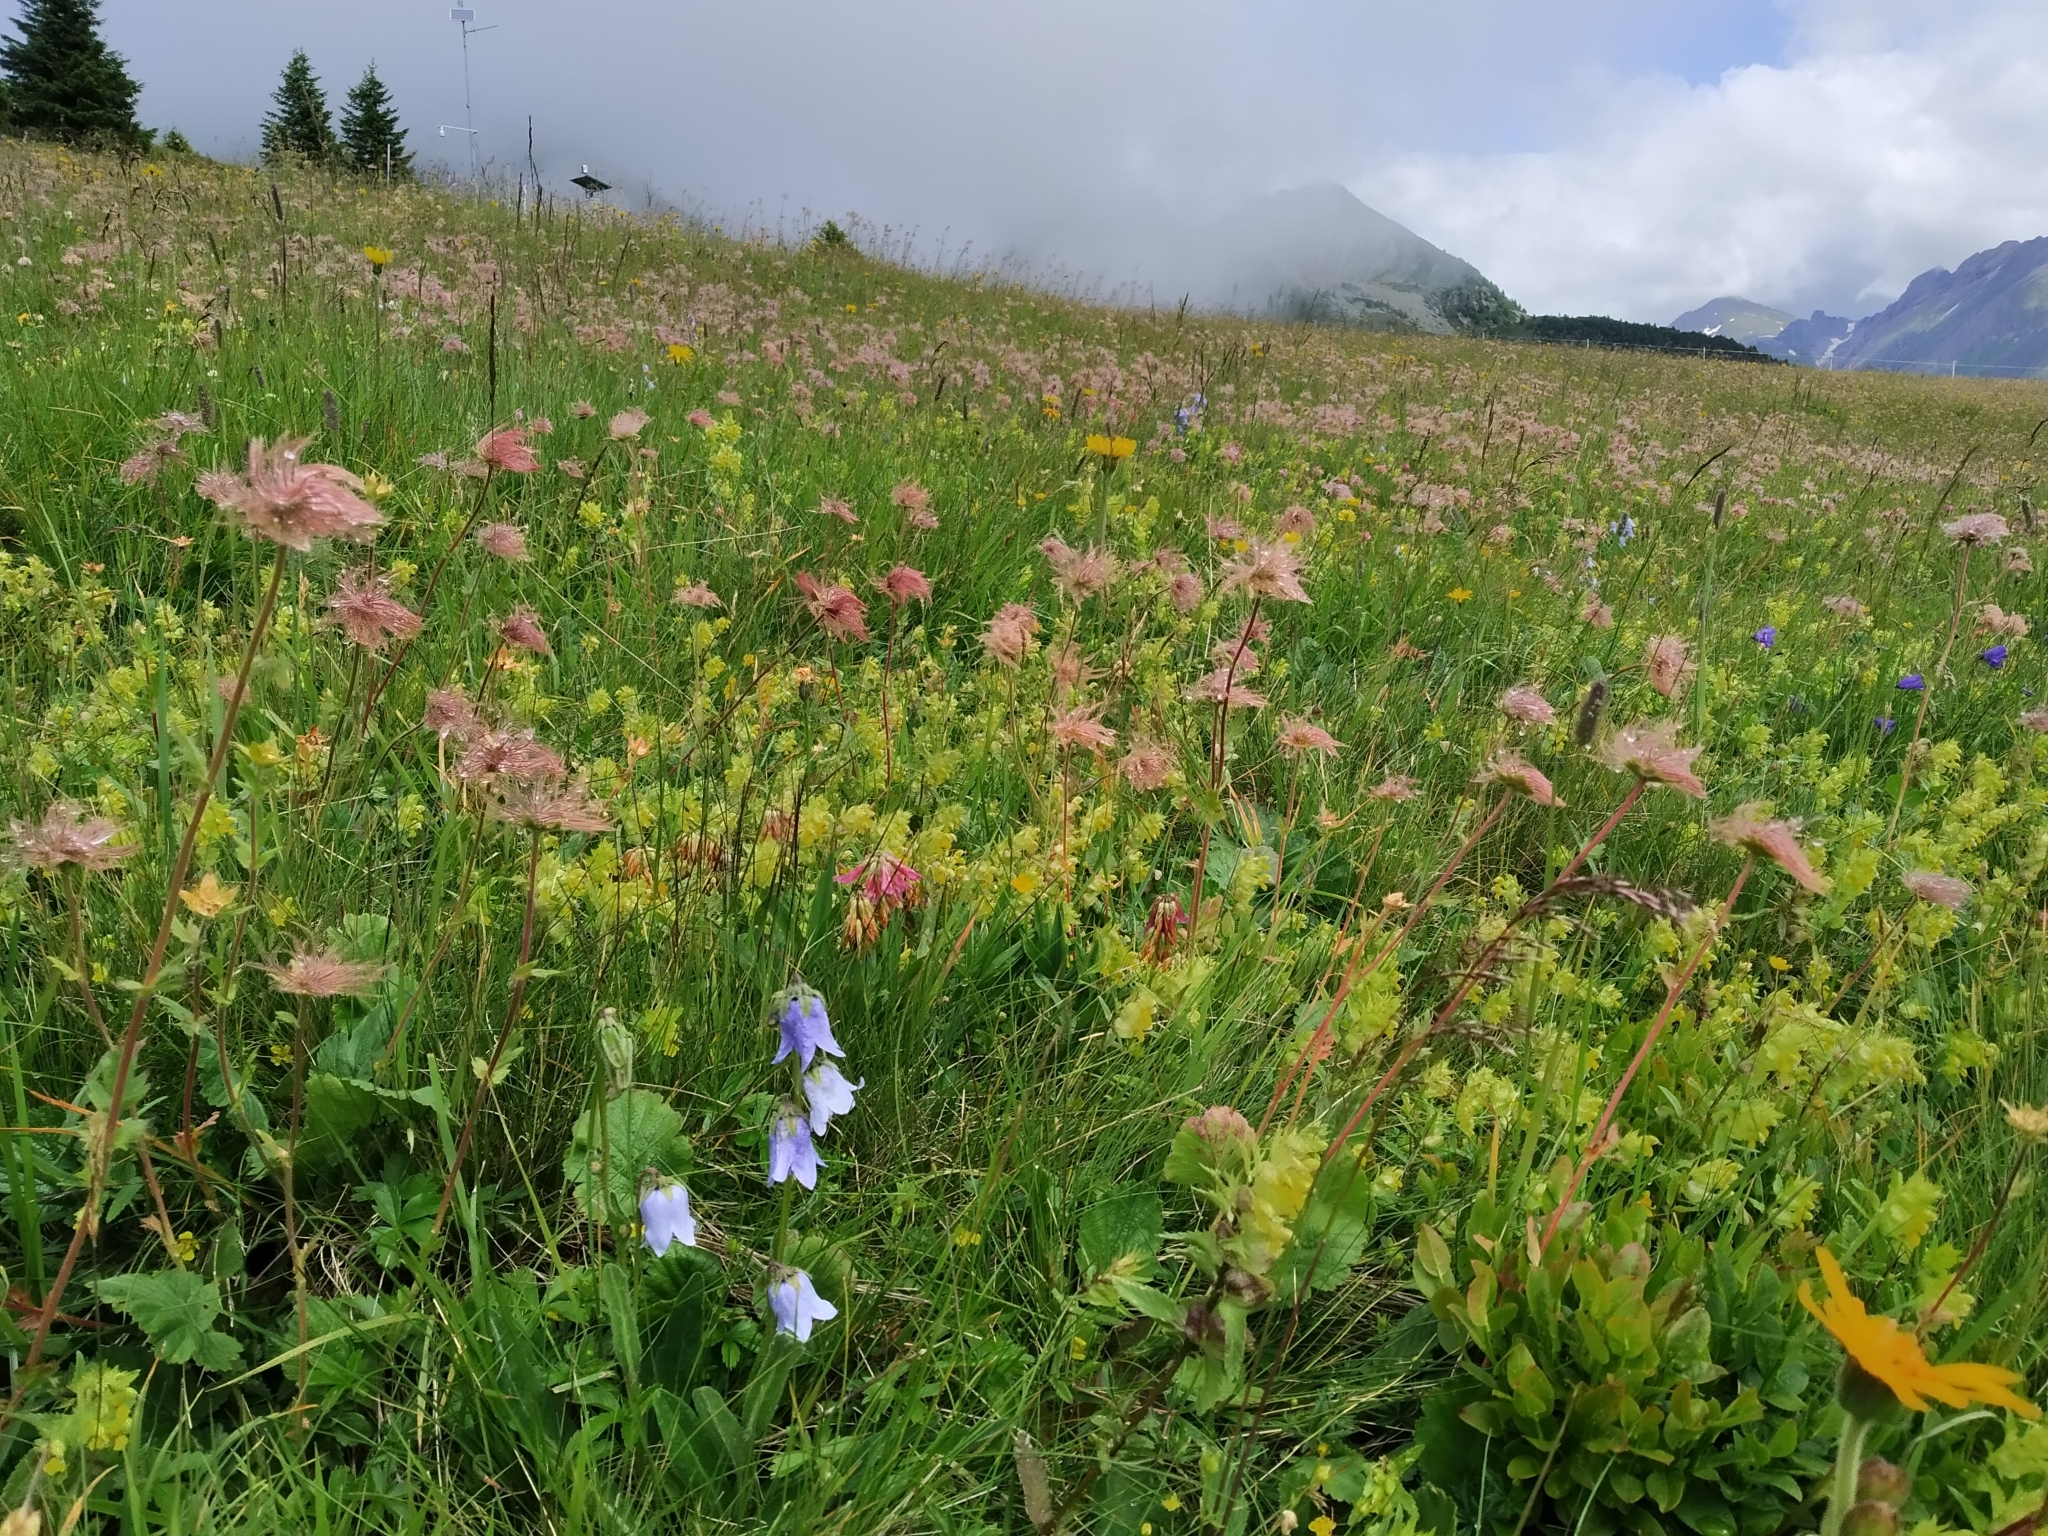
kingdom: Plantae
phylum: Tracheophyta
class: Magnoliopsida
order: Asterales
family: Campanulaceae
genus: Campanula
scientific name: Campanula barbata
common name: Bearded bellflower
